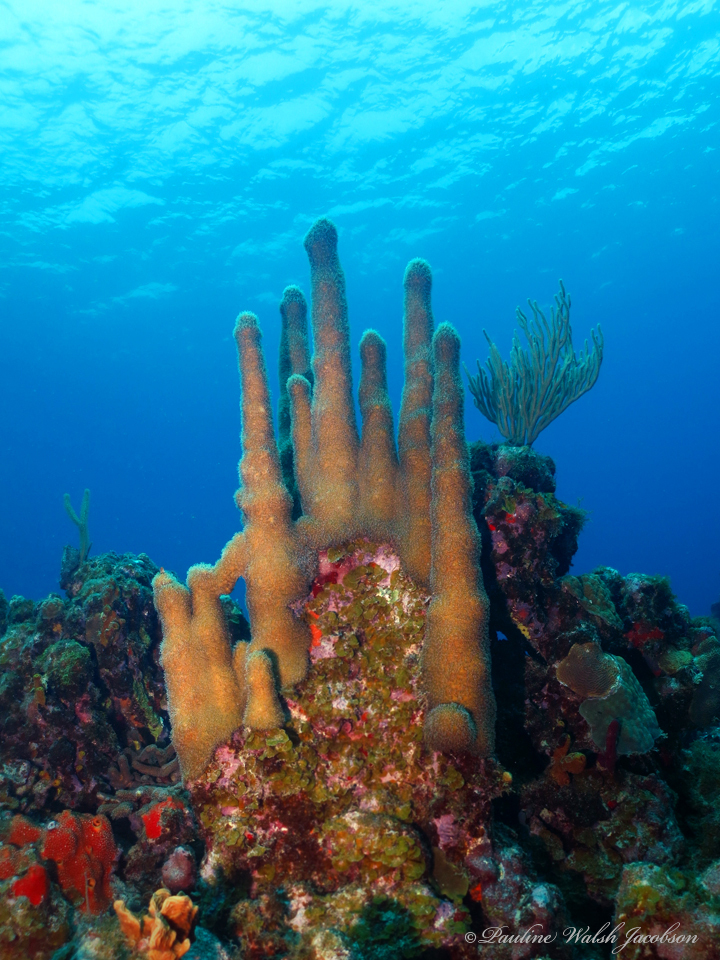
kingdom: Animalia
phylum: Cnidaria
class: Anthozoa
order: Scleractinia
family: Meandrinidae
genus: Dendrogyra
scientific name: Dendrogyra cylindrus
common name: Pillar coral
